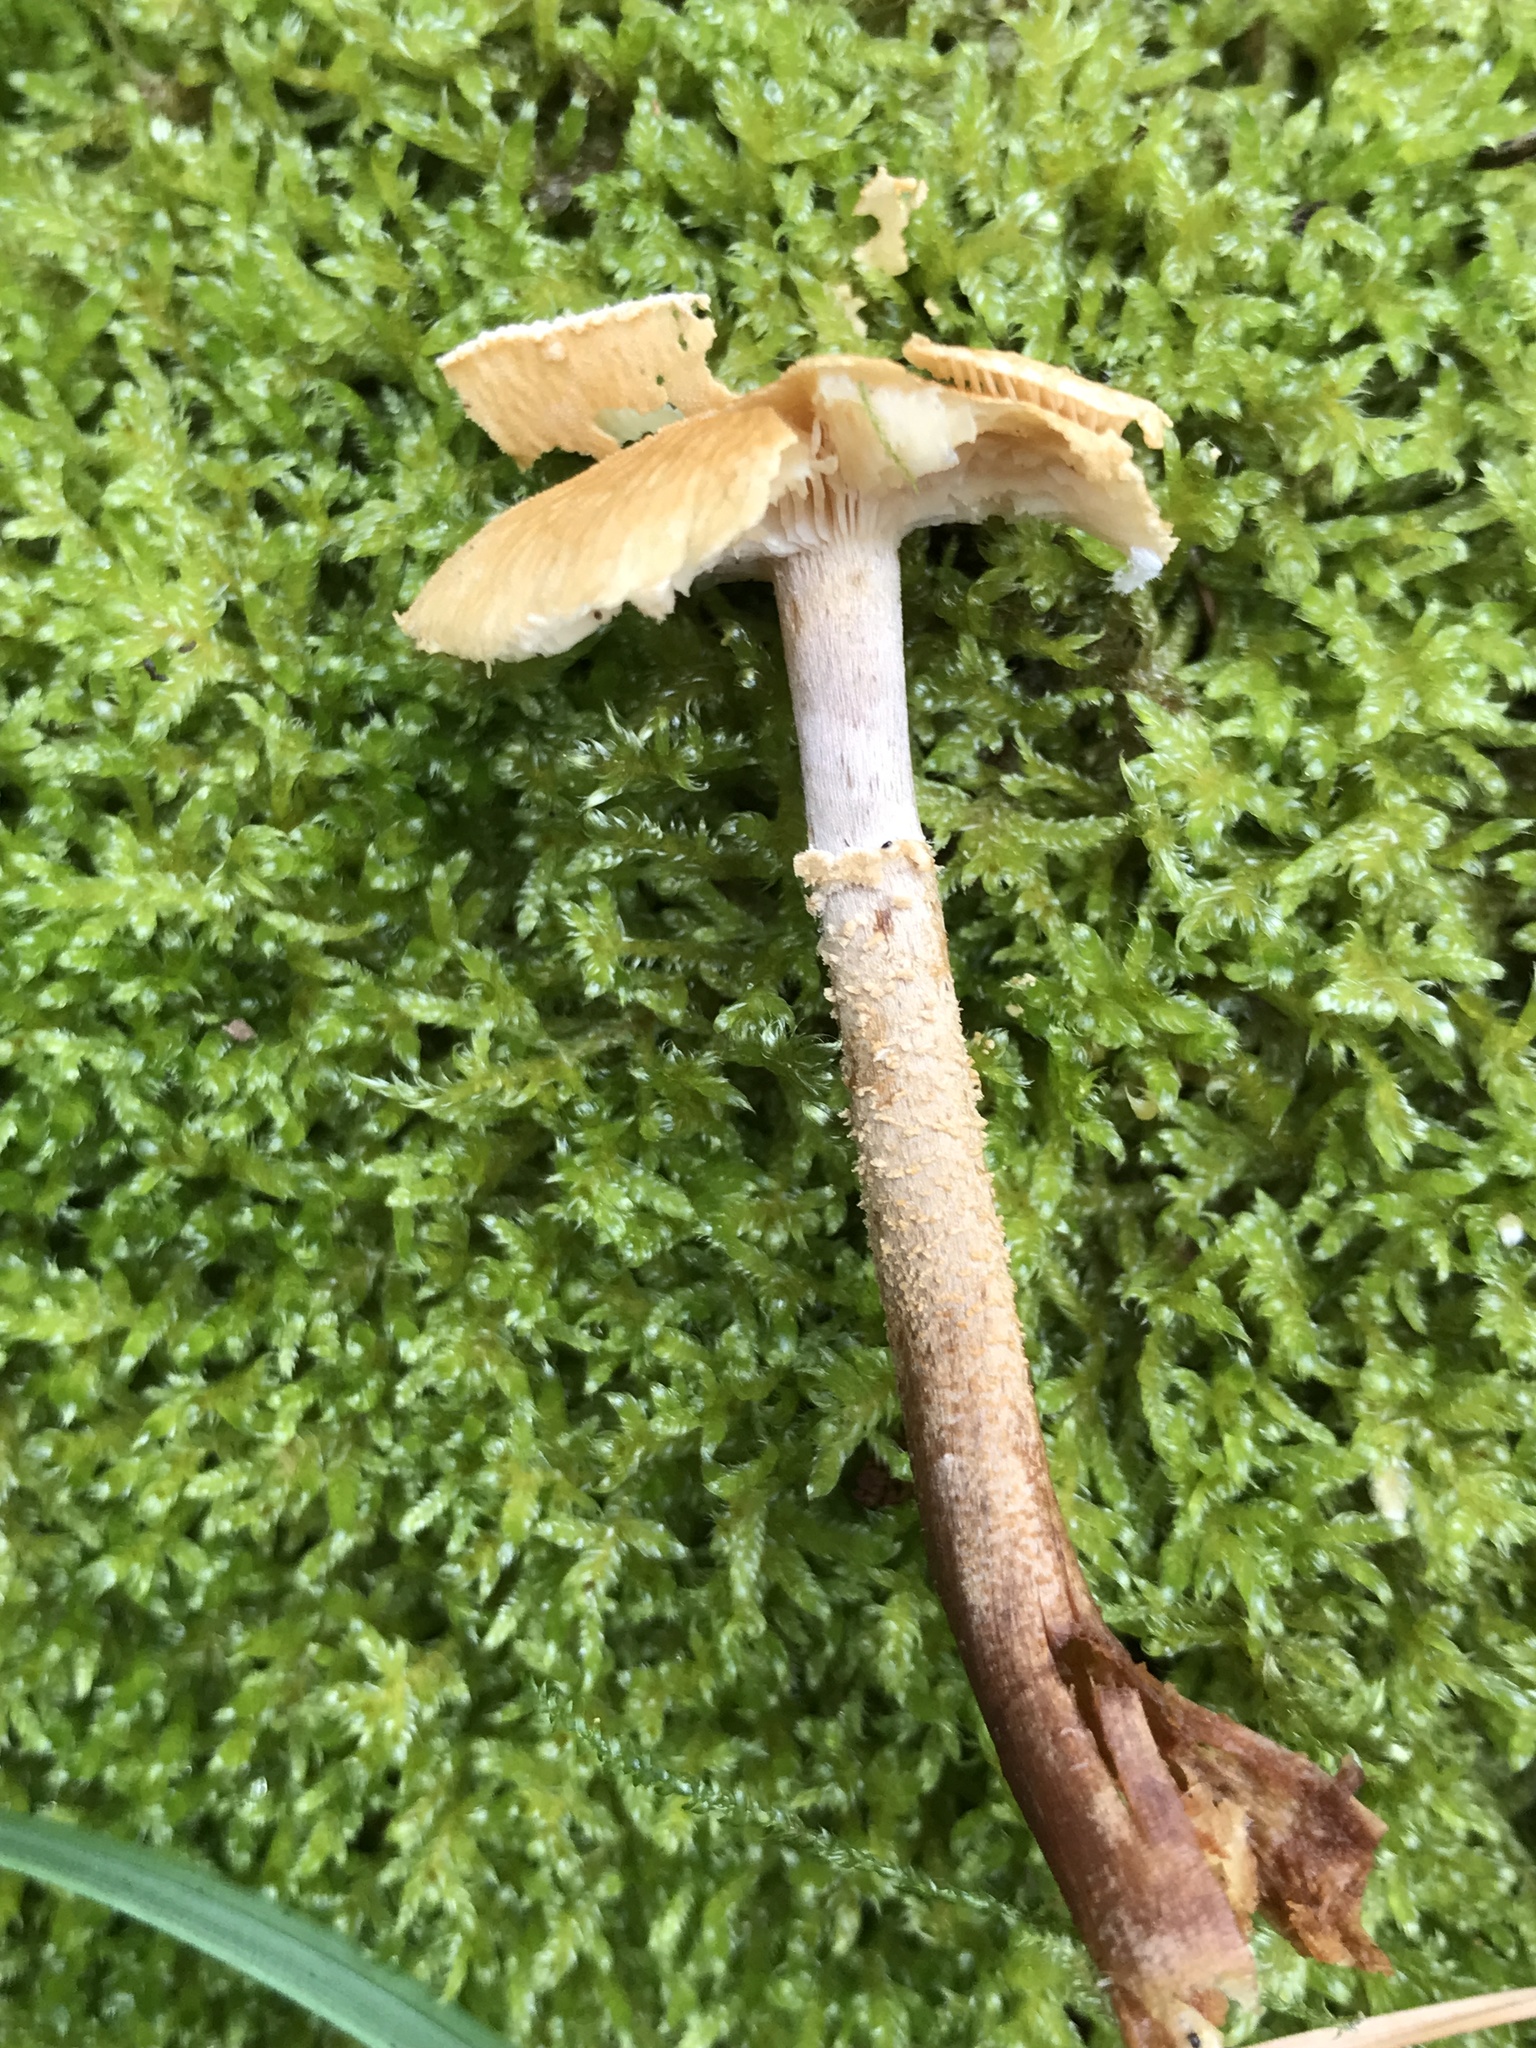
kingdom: Fungi
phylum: Basidiomycota
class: Agaricomycetes
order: Agaricales
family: Tricholomataceae
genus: Cystoderma
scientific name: Cystoderma amianthinum
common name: Earthy powdercap
